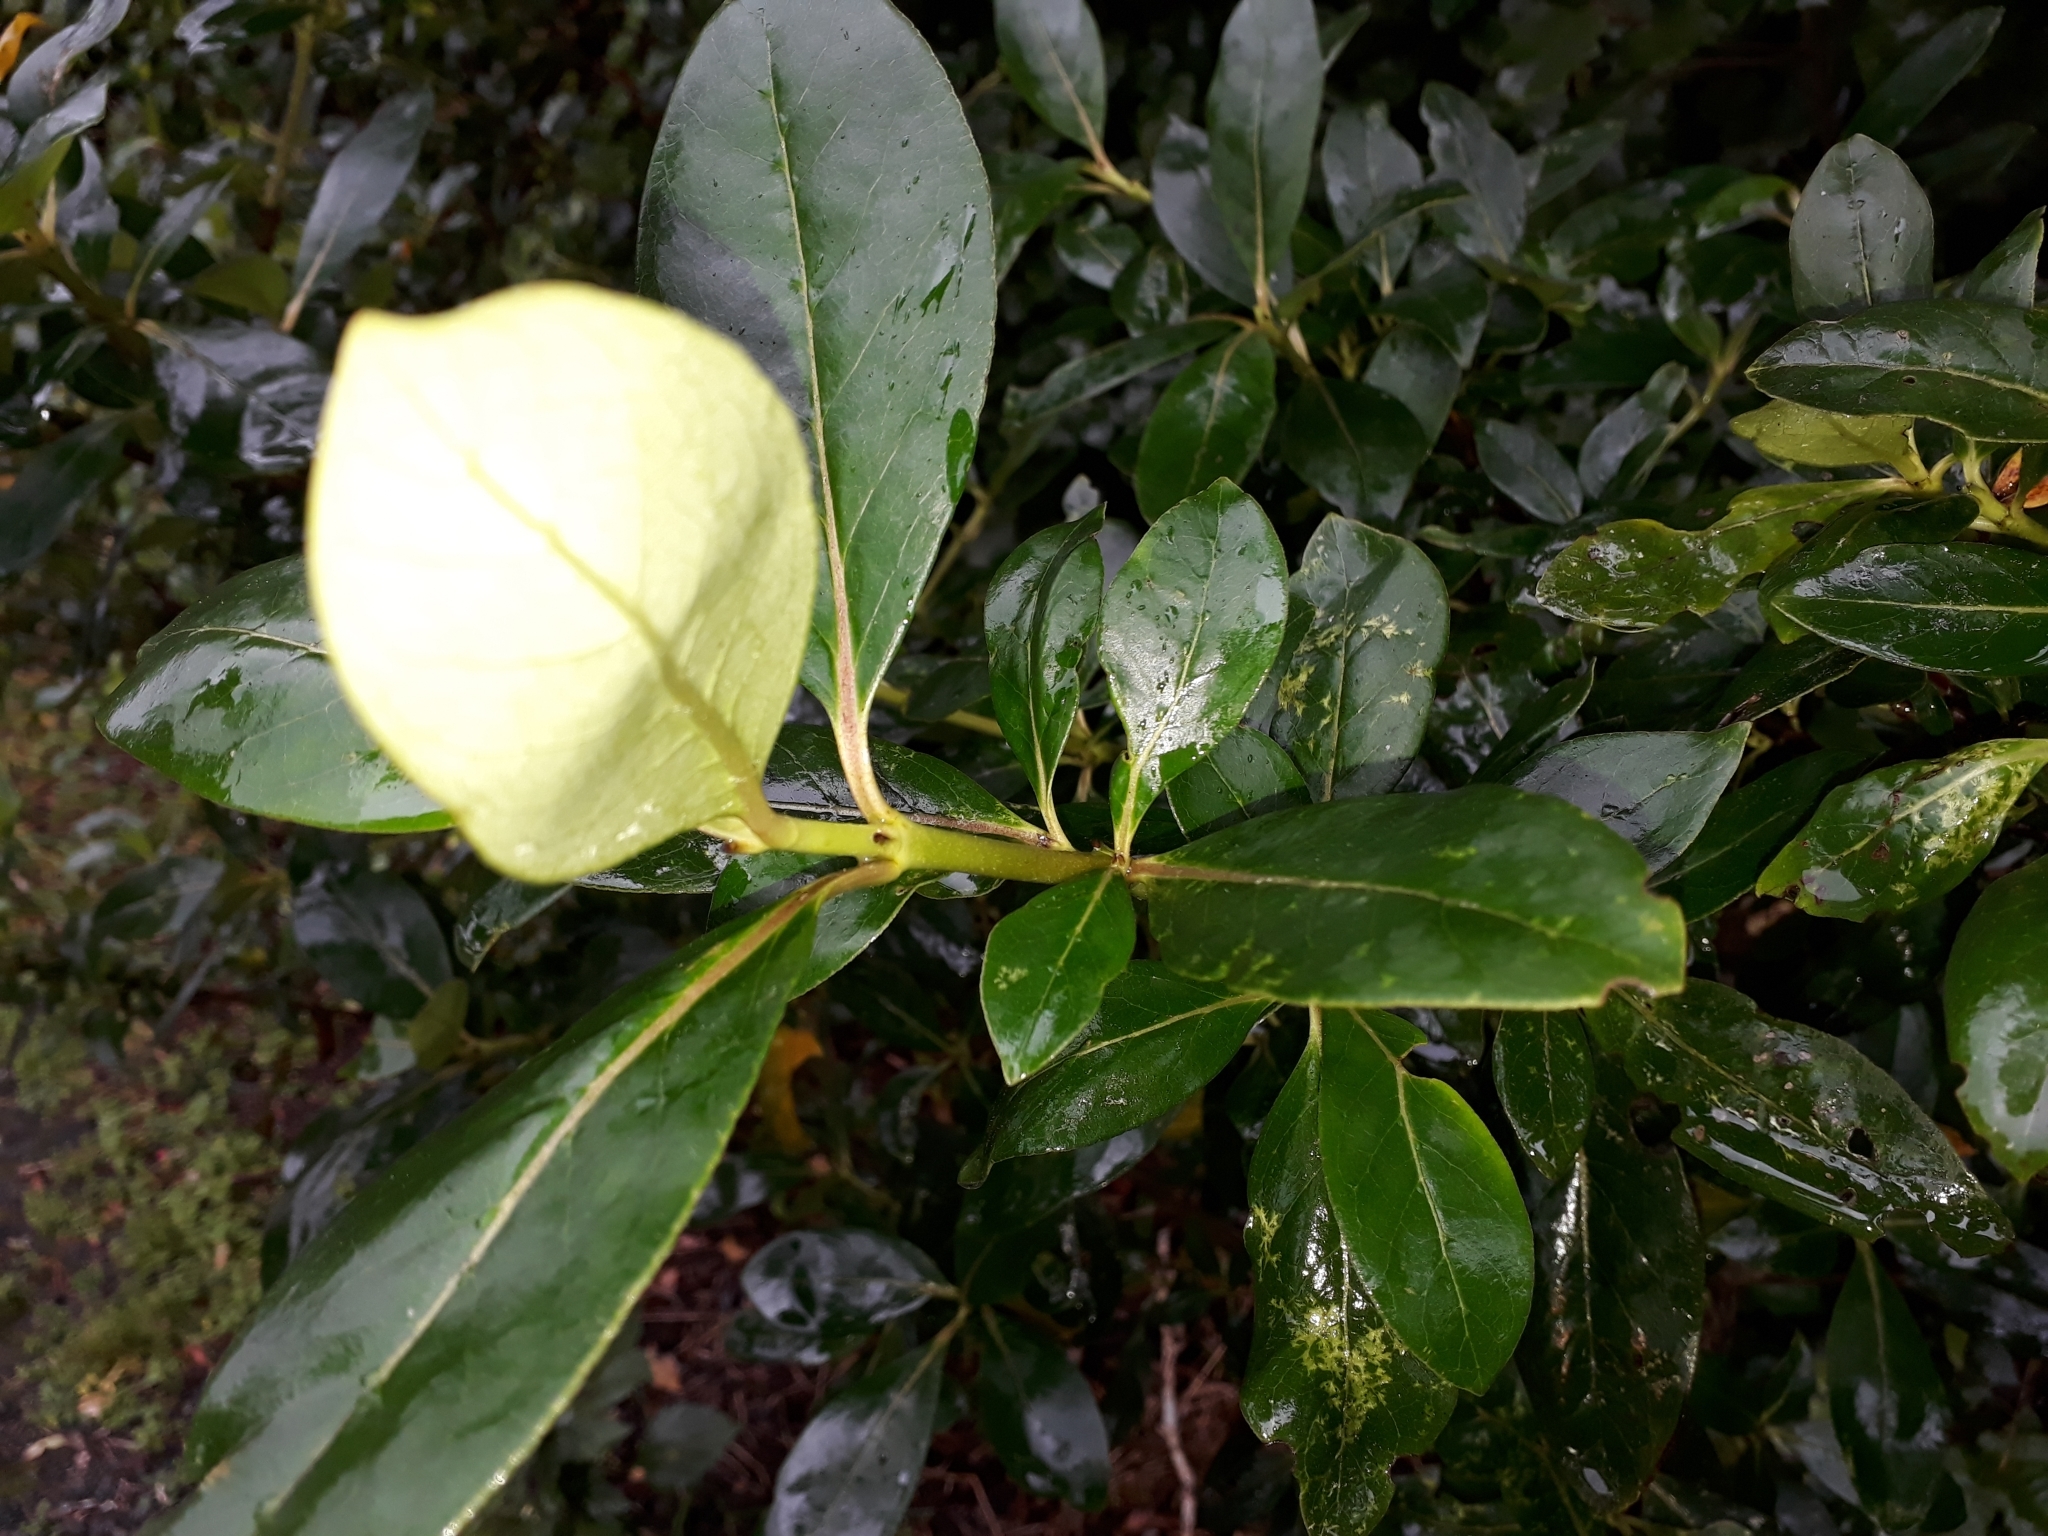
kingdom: Plantae
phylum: Tracheophyta
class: Magnoliopsida
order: Gentianales
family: Rubiaceae
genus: Coprosma
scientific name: Coprosma robusta
